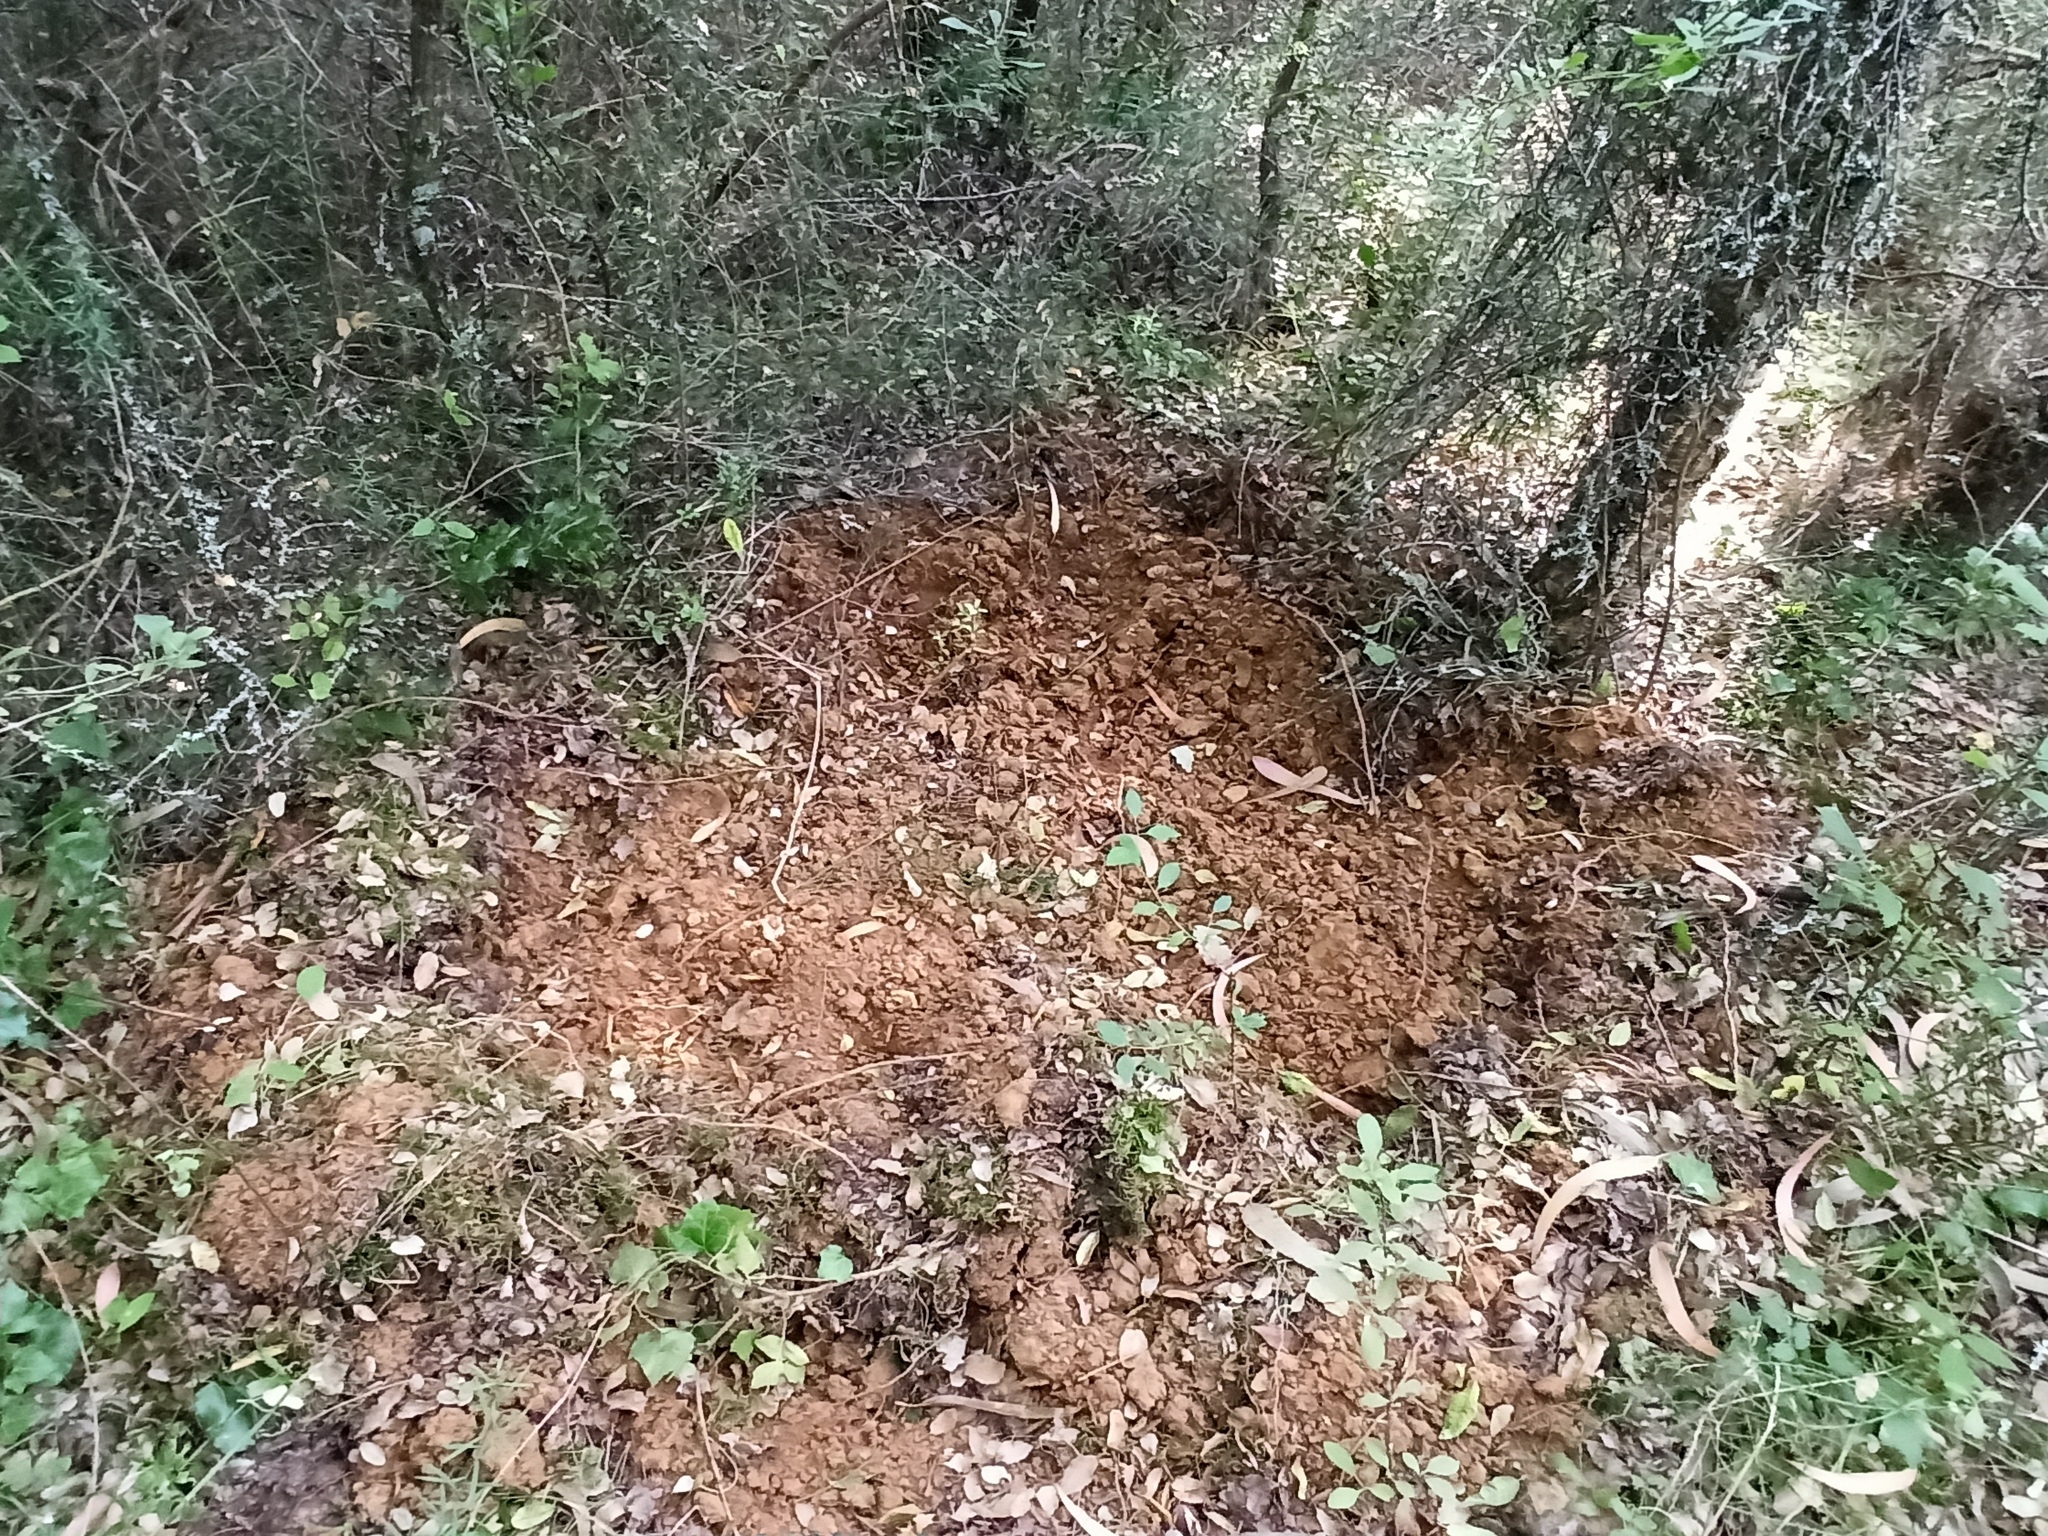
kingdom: Animalia
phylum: Chordata
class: Mammalia
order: Artiodactyla
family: Suidae
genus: Sus
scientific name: Sus scrofa
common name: Wild boar
